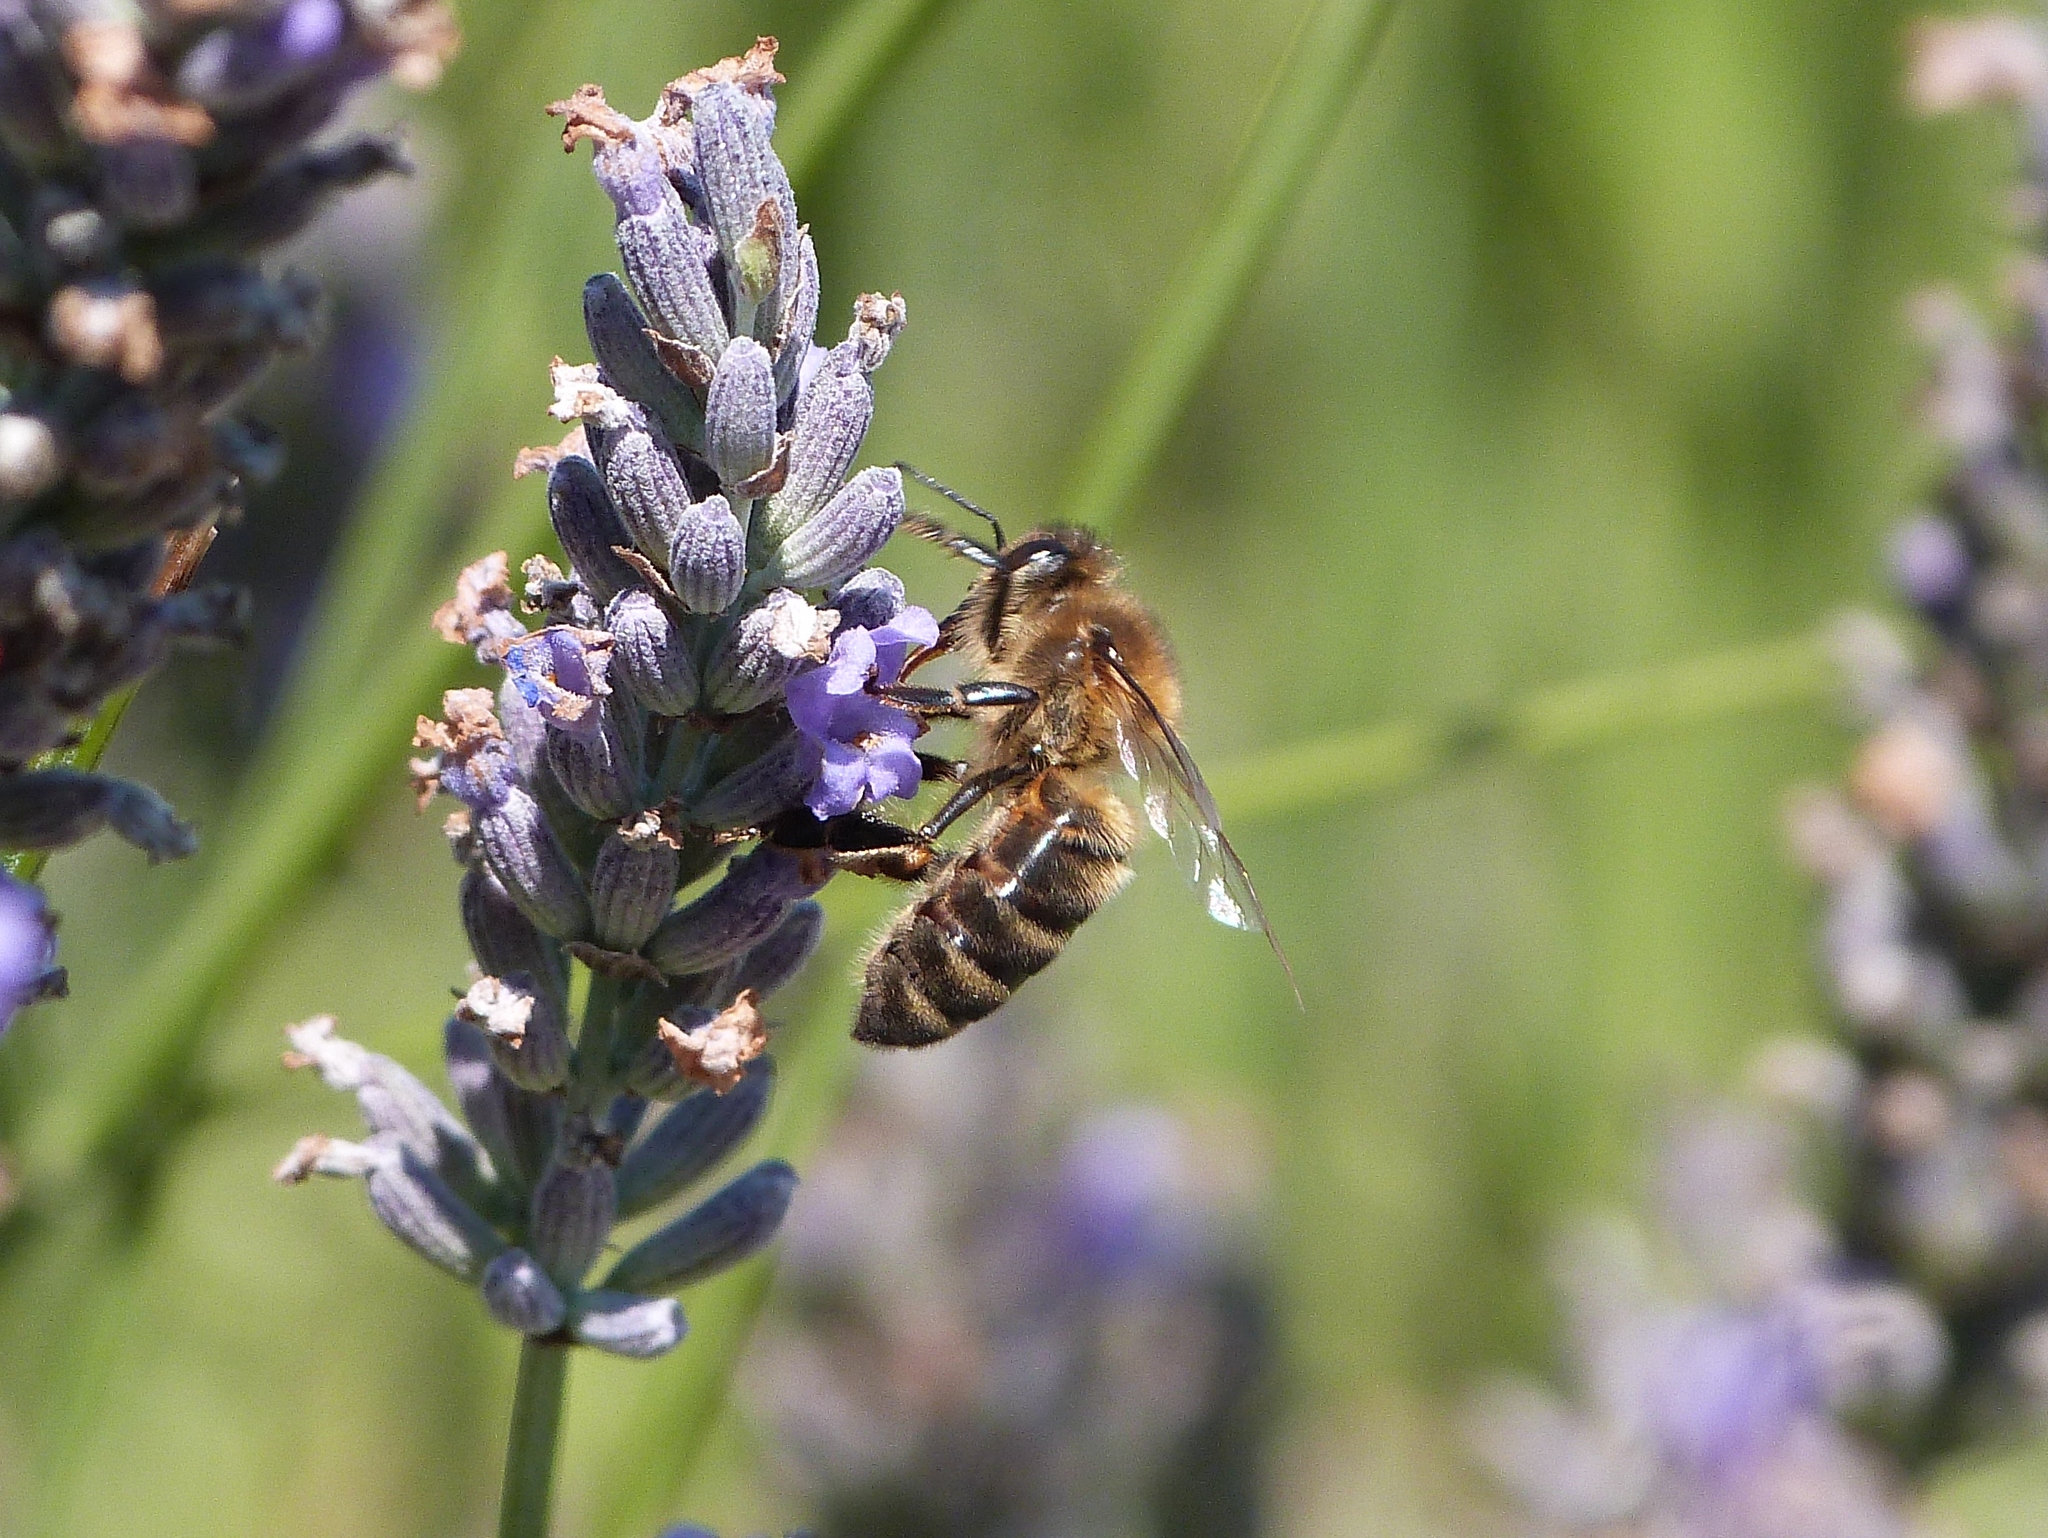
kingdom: Animalia
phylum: Arthropoda
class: Insecta
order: Hymenoptera
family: Apidae
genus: Apis
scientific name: Apis mellifera
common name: Honey bee
